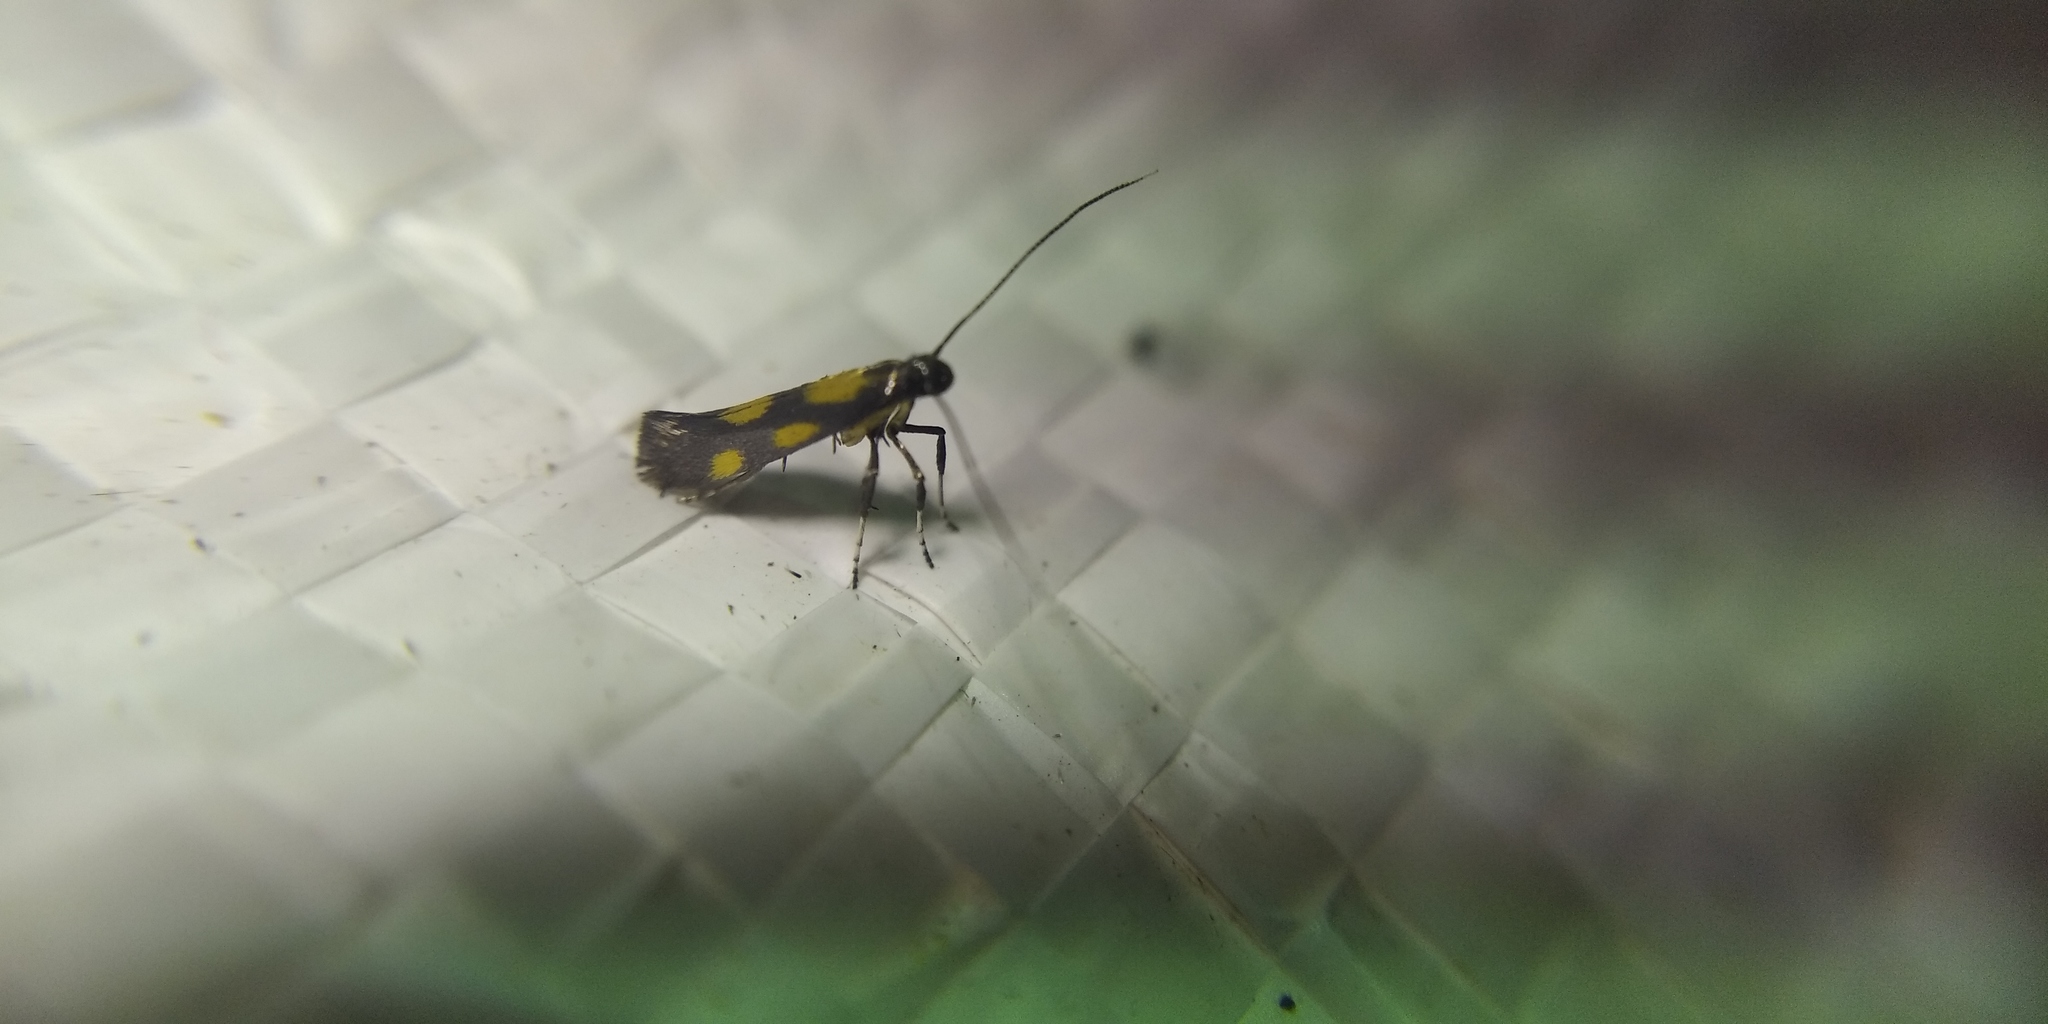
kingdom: Animalia
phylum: Arthropoda
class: Insecta
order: Lepidoptera
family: Gracillariidae
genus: Euspilapteryx
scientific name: Euspilapteryx auroguttella
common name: Gold-dot slender
